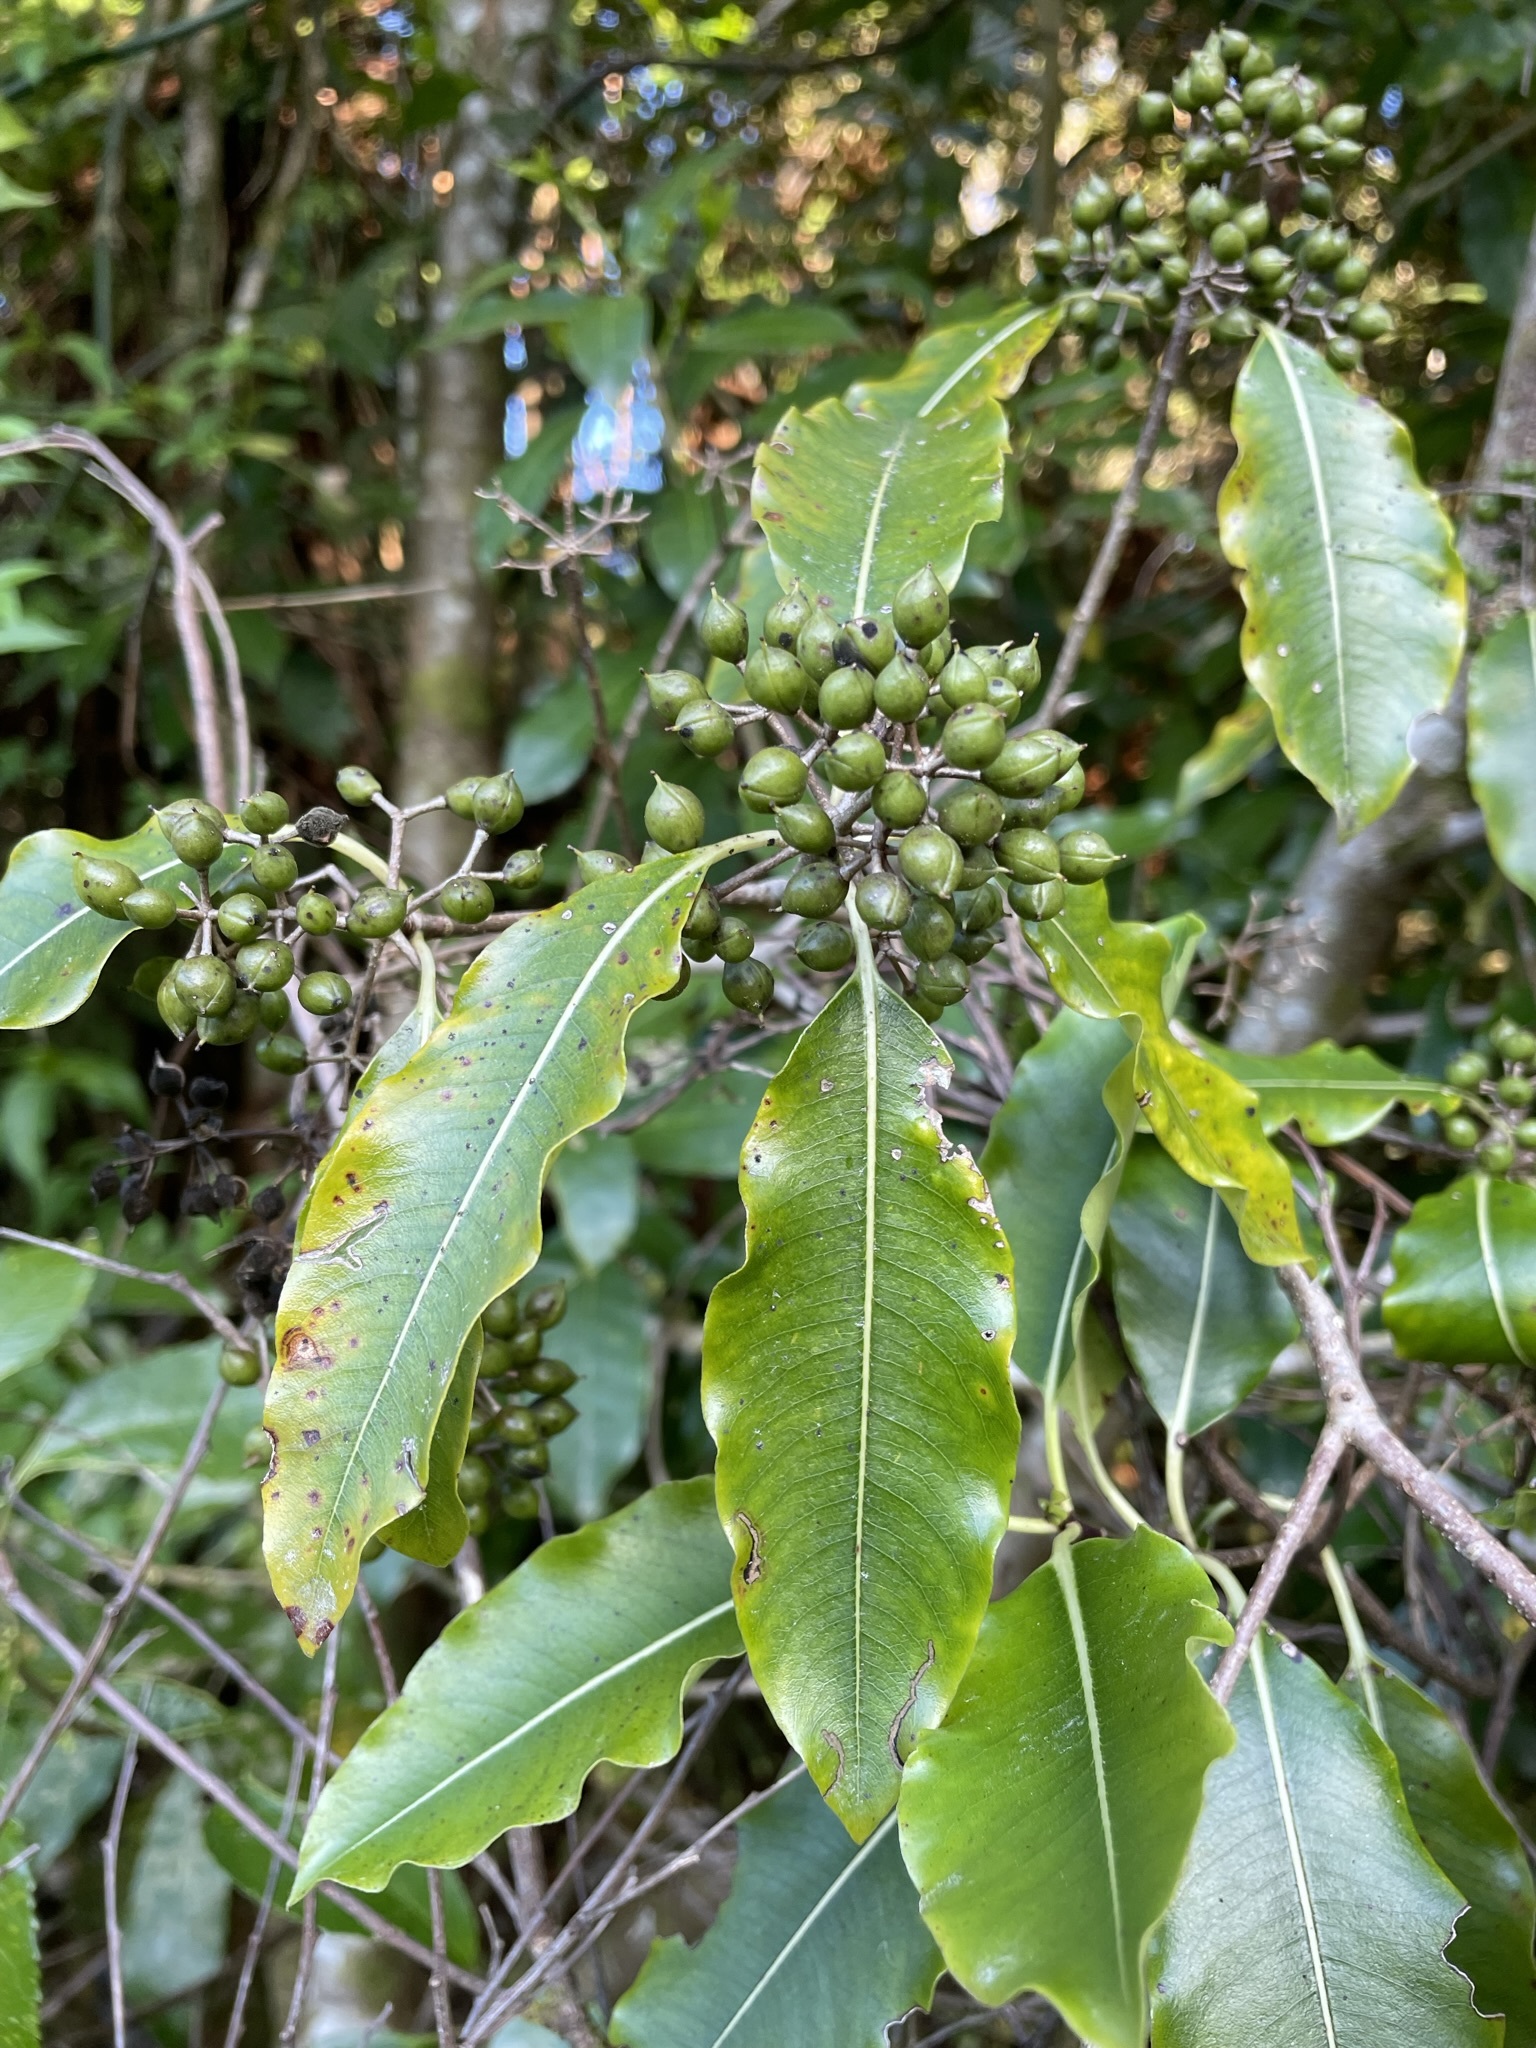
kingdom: Plantae
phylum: Tracheophyta
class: Magnoliopsida
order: Apiales
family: Pittosporaceae
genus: Pittosporum
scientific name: Pittosporum eugenioides
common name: Lemonwood
